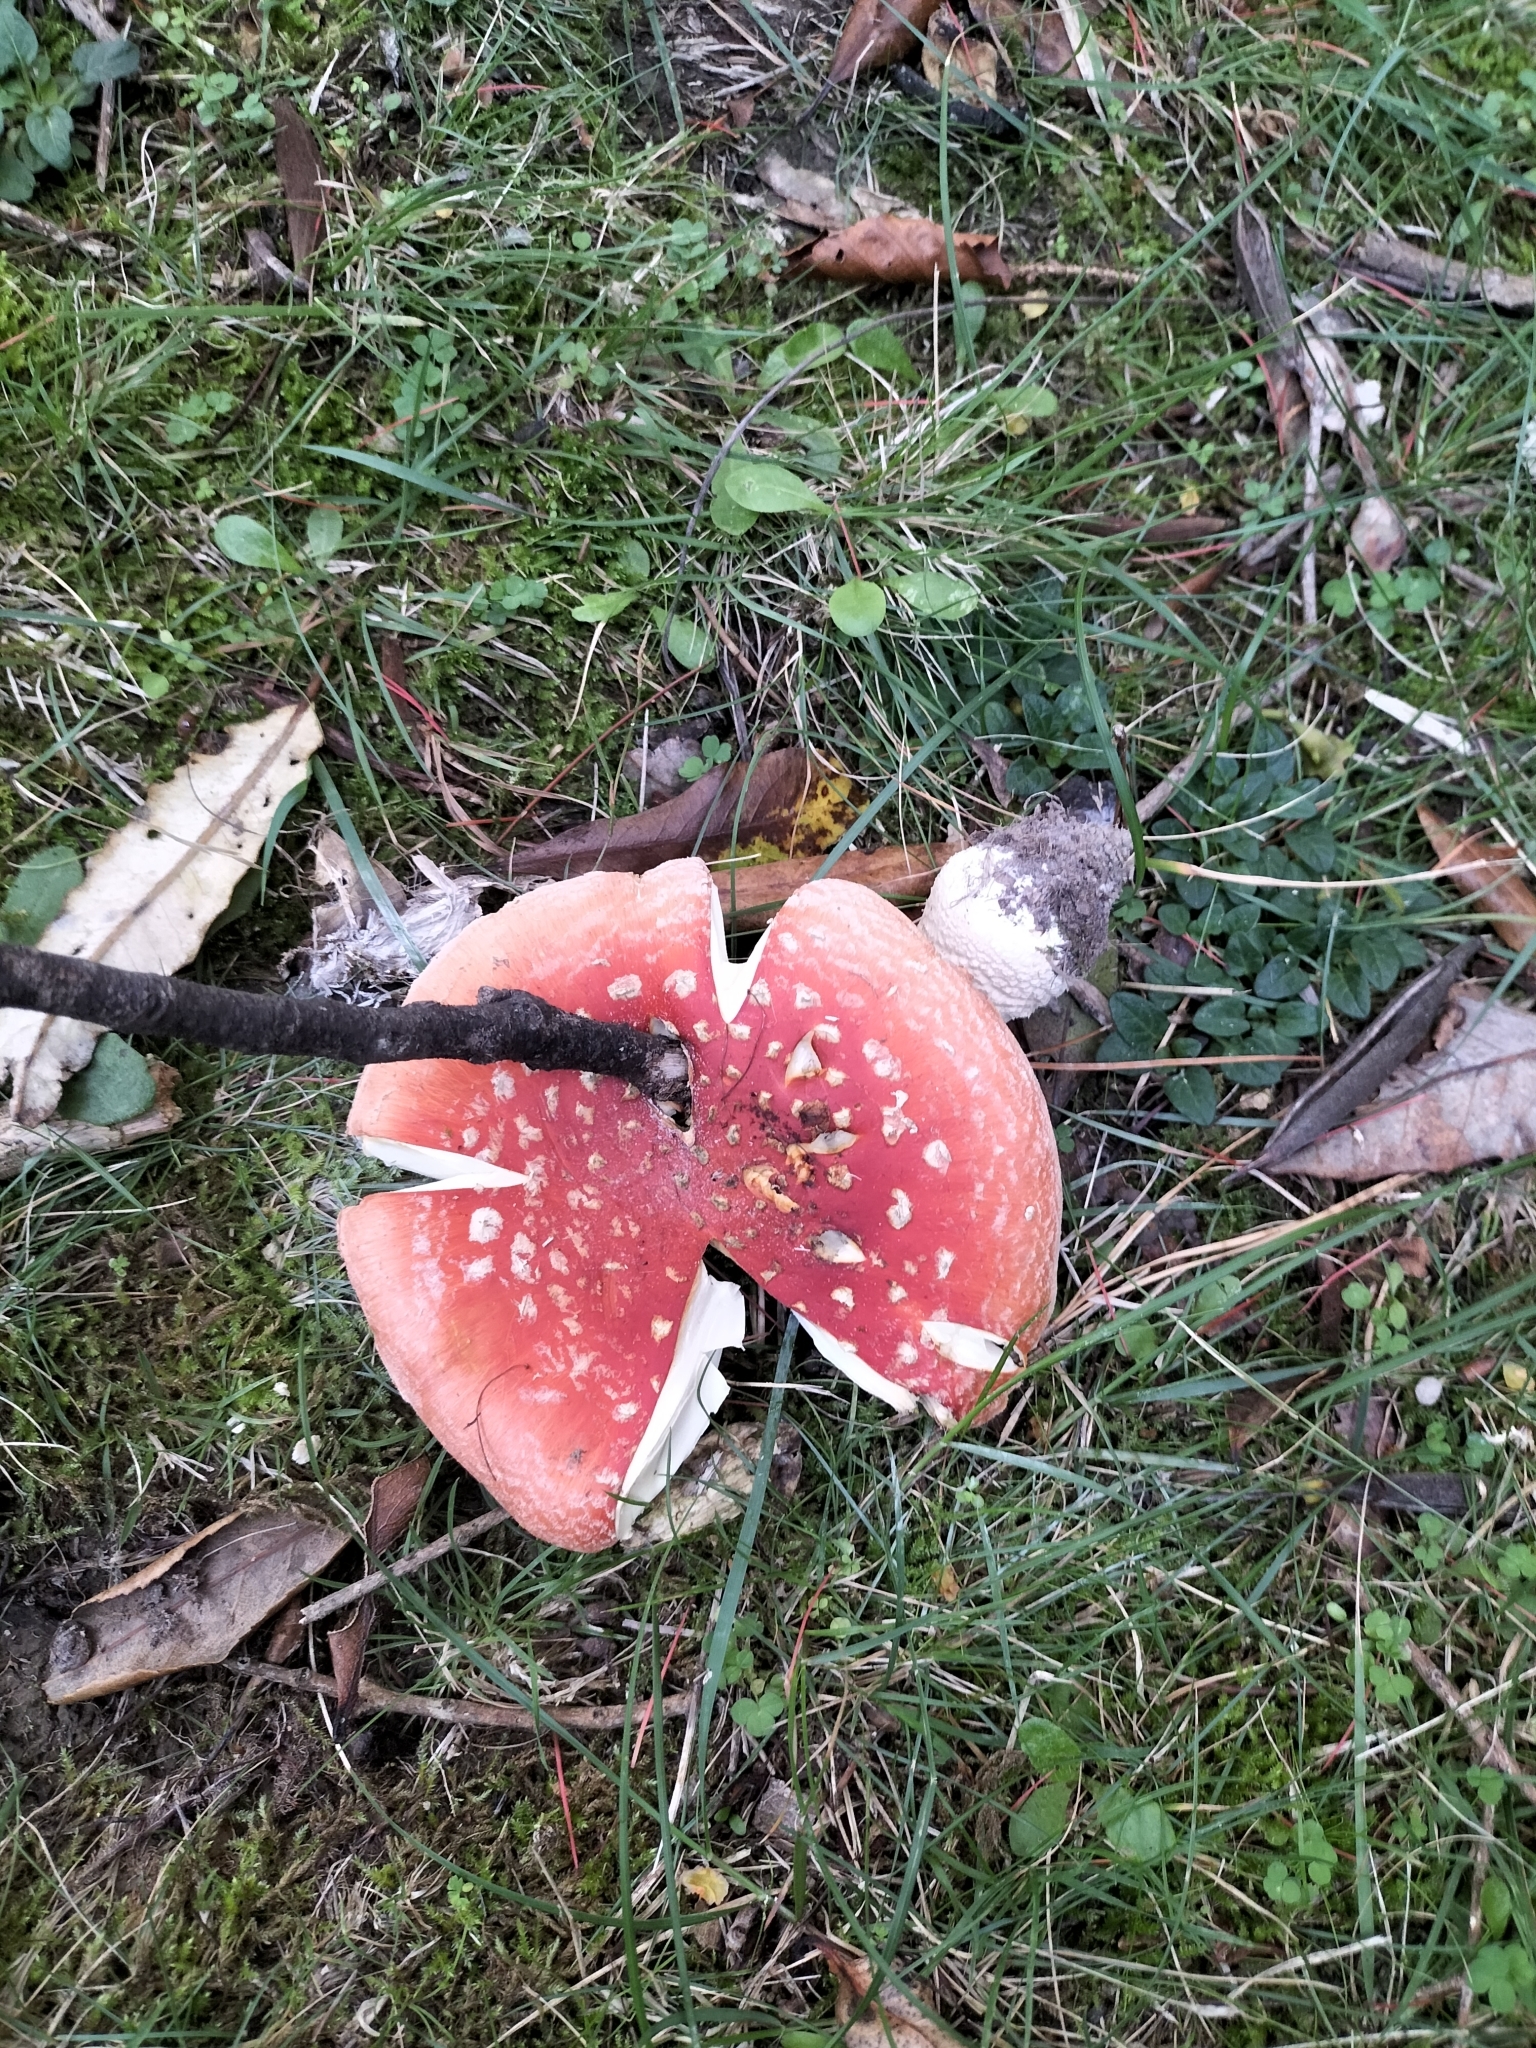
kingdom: Fungi
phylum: Basidiomycota
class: Agaricomycetes
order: Agaricales
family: Amanitaceae
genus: Amanita
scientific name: Amanita muscaria
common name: Fly agaric
